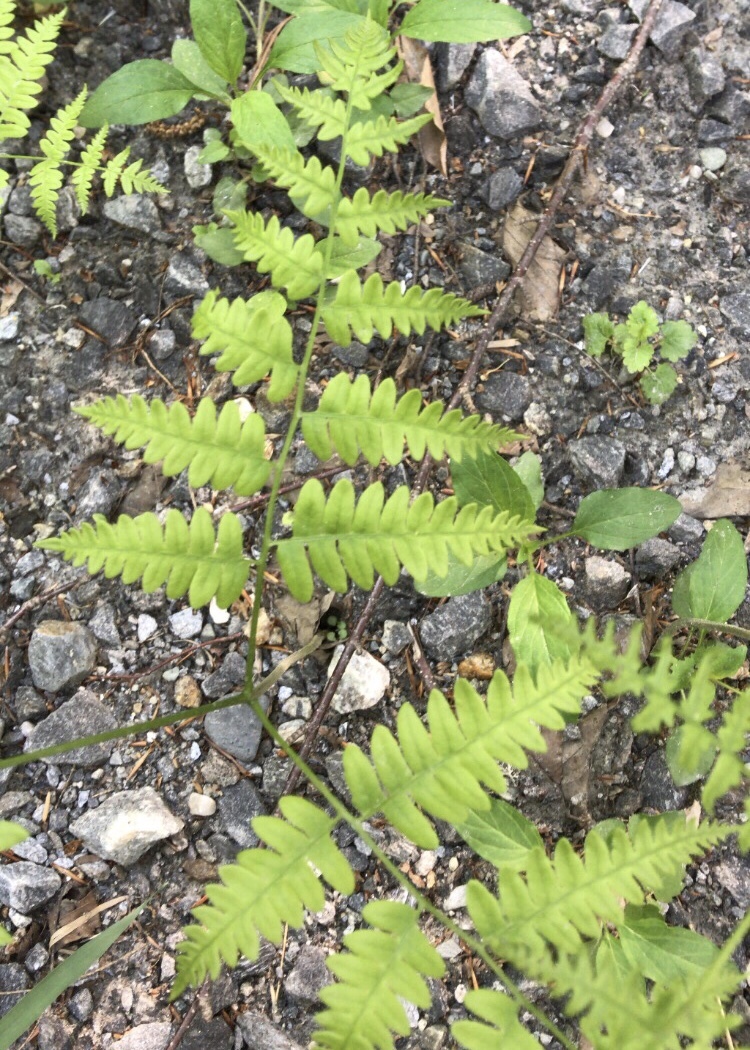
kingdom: Plantae
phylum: Tracheophyta
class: Polypodiopsida
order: Polypodiales
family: Dennstaedtiaceae
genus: Pteridium
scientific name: Pteridium aquilinum
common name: Bracken
